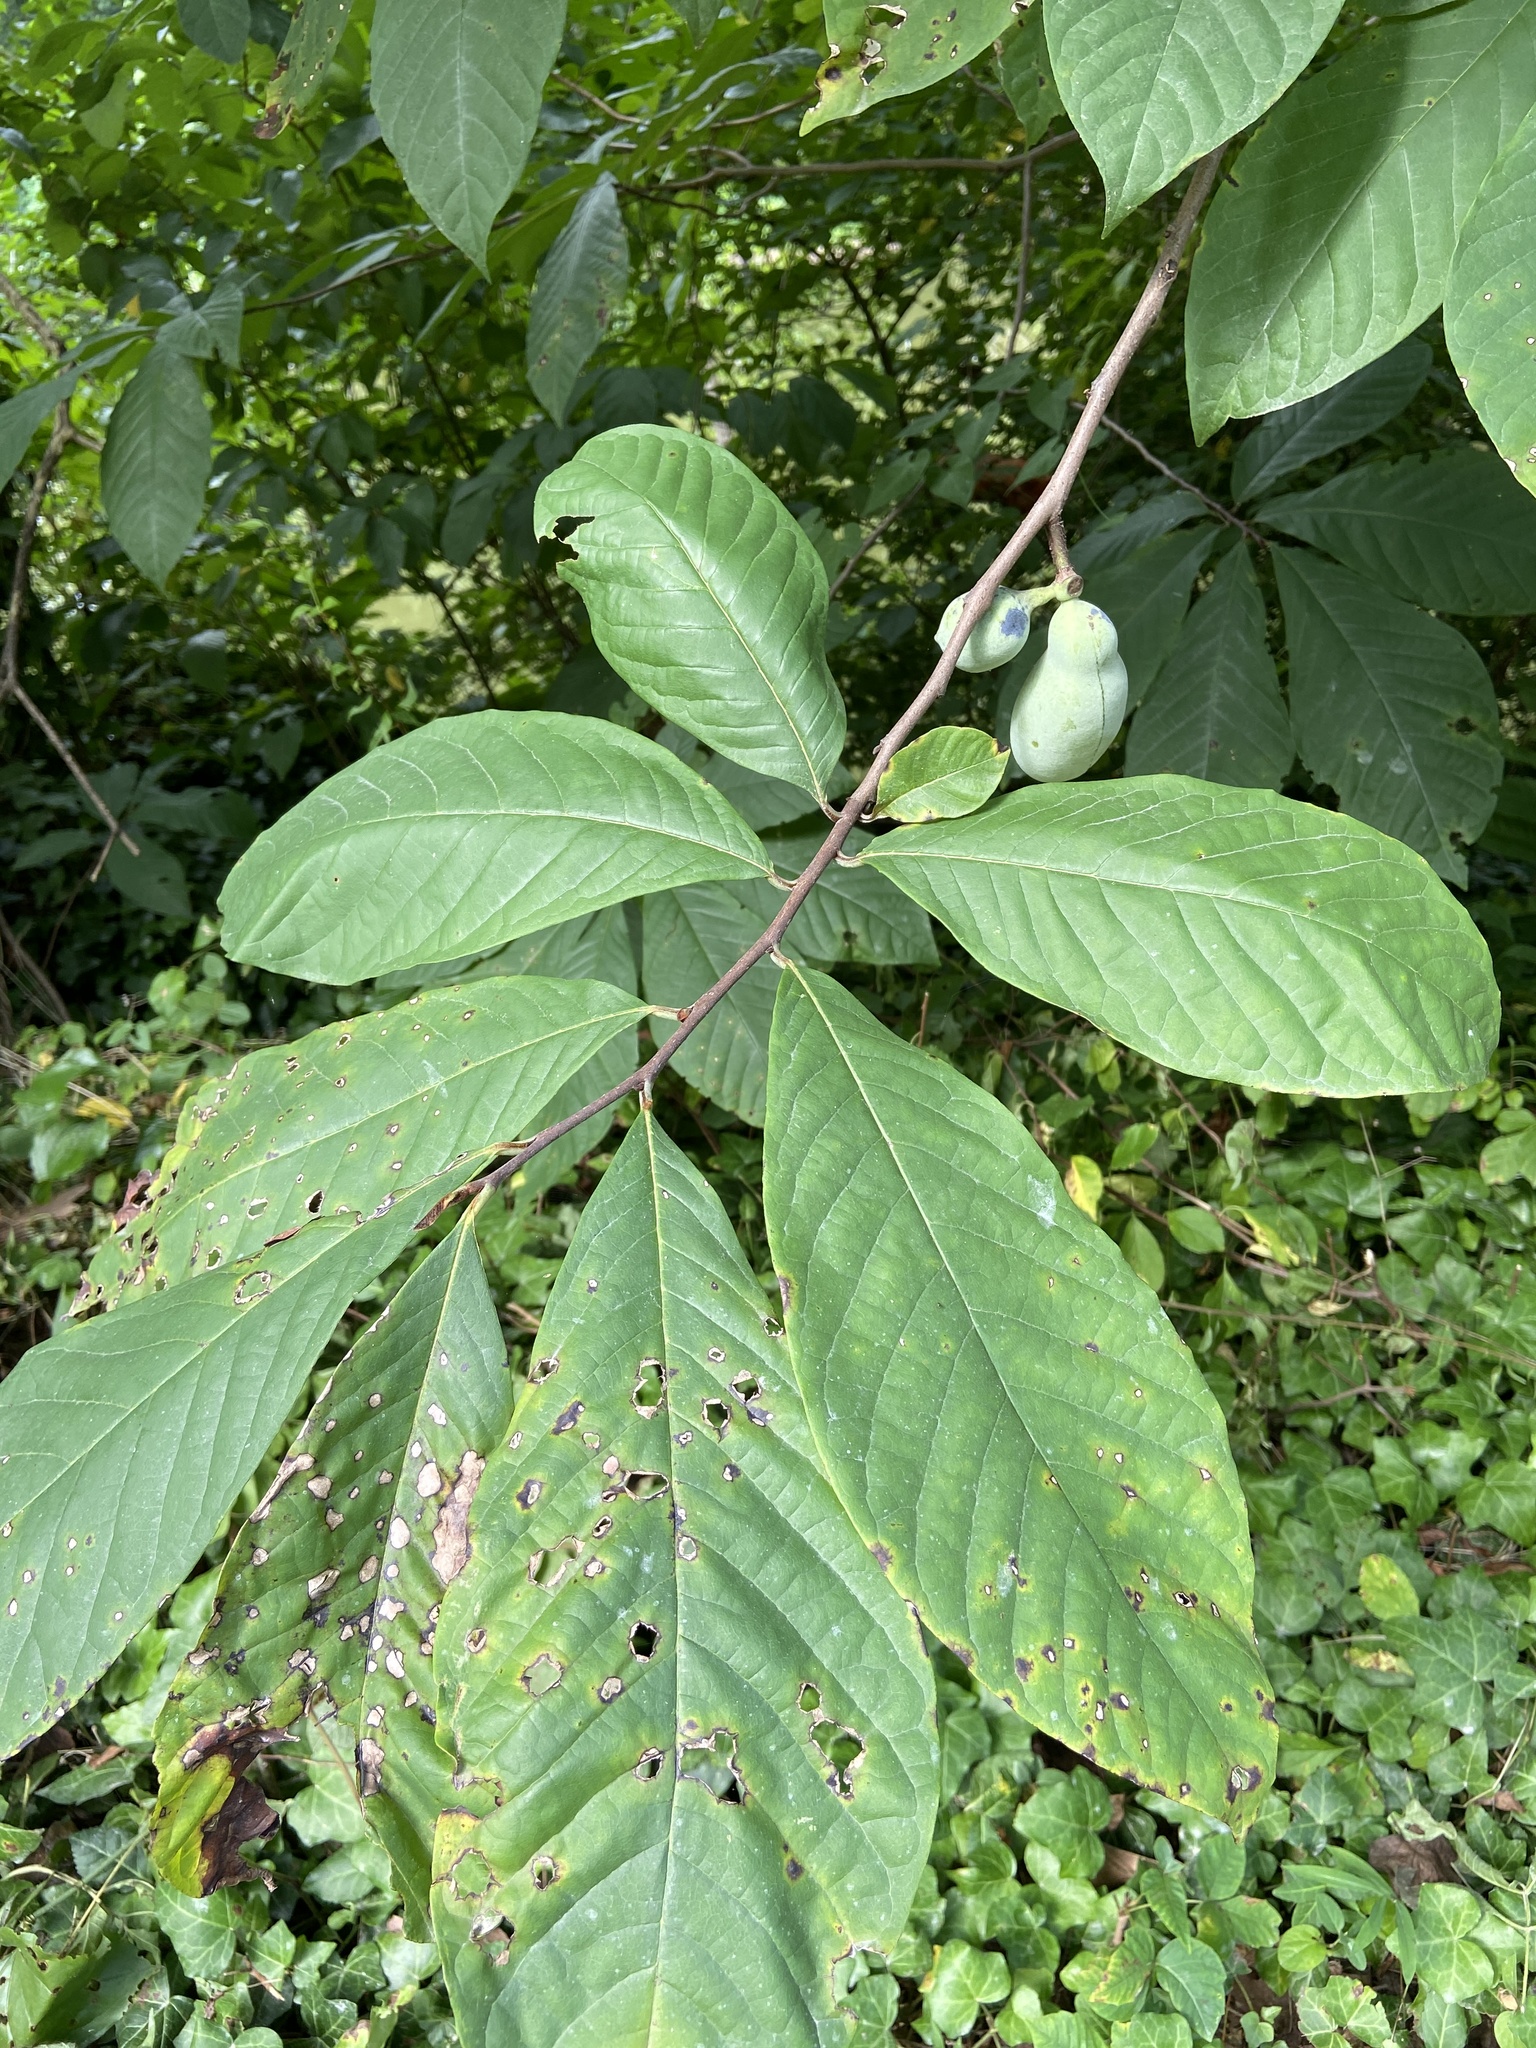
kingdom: Plantae
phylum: Tracheophyta
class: Magnoliopsida
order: Magnoliales
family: Annonaceae
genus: Asimina
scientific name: Asimina triloba
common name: Dog-banana
